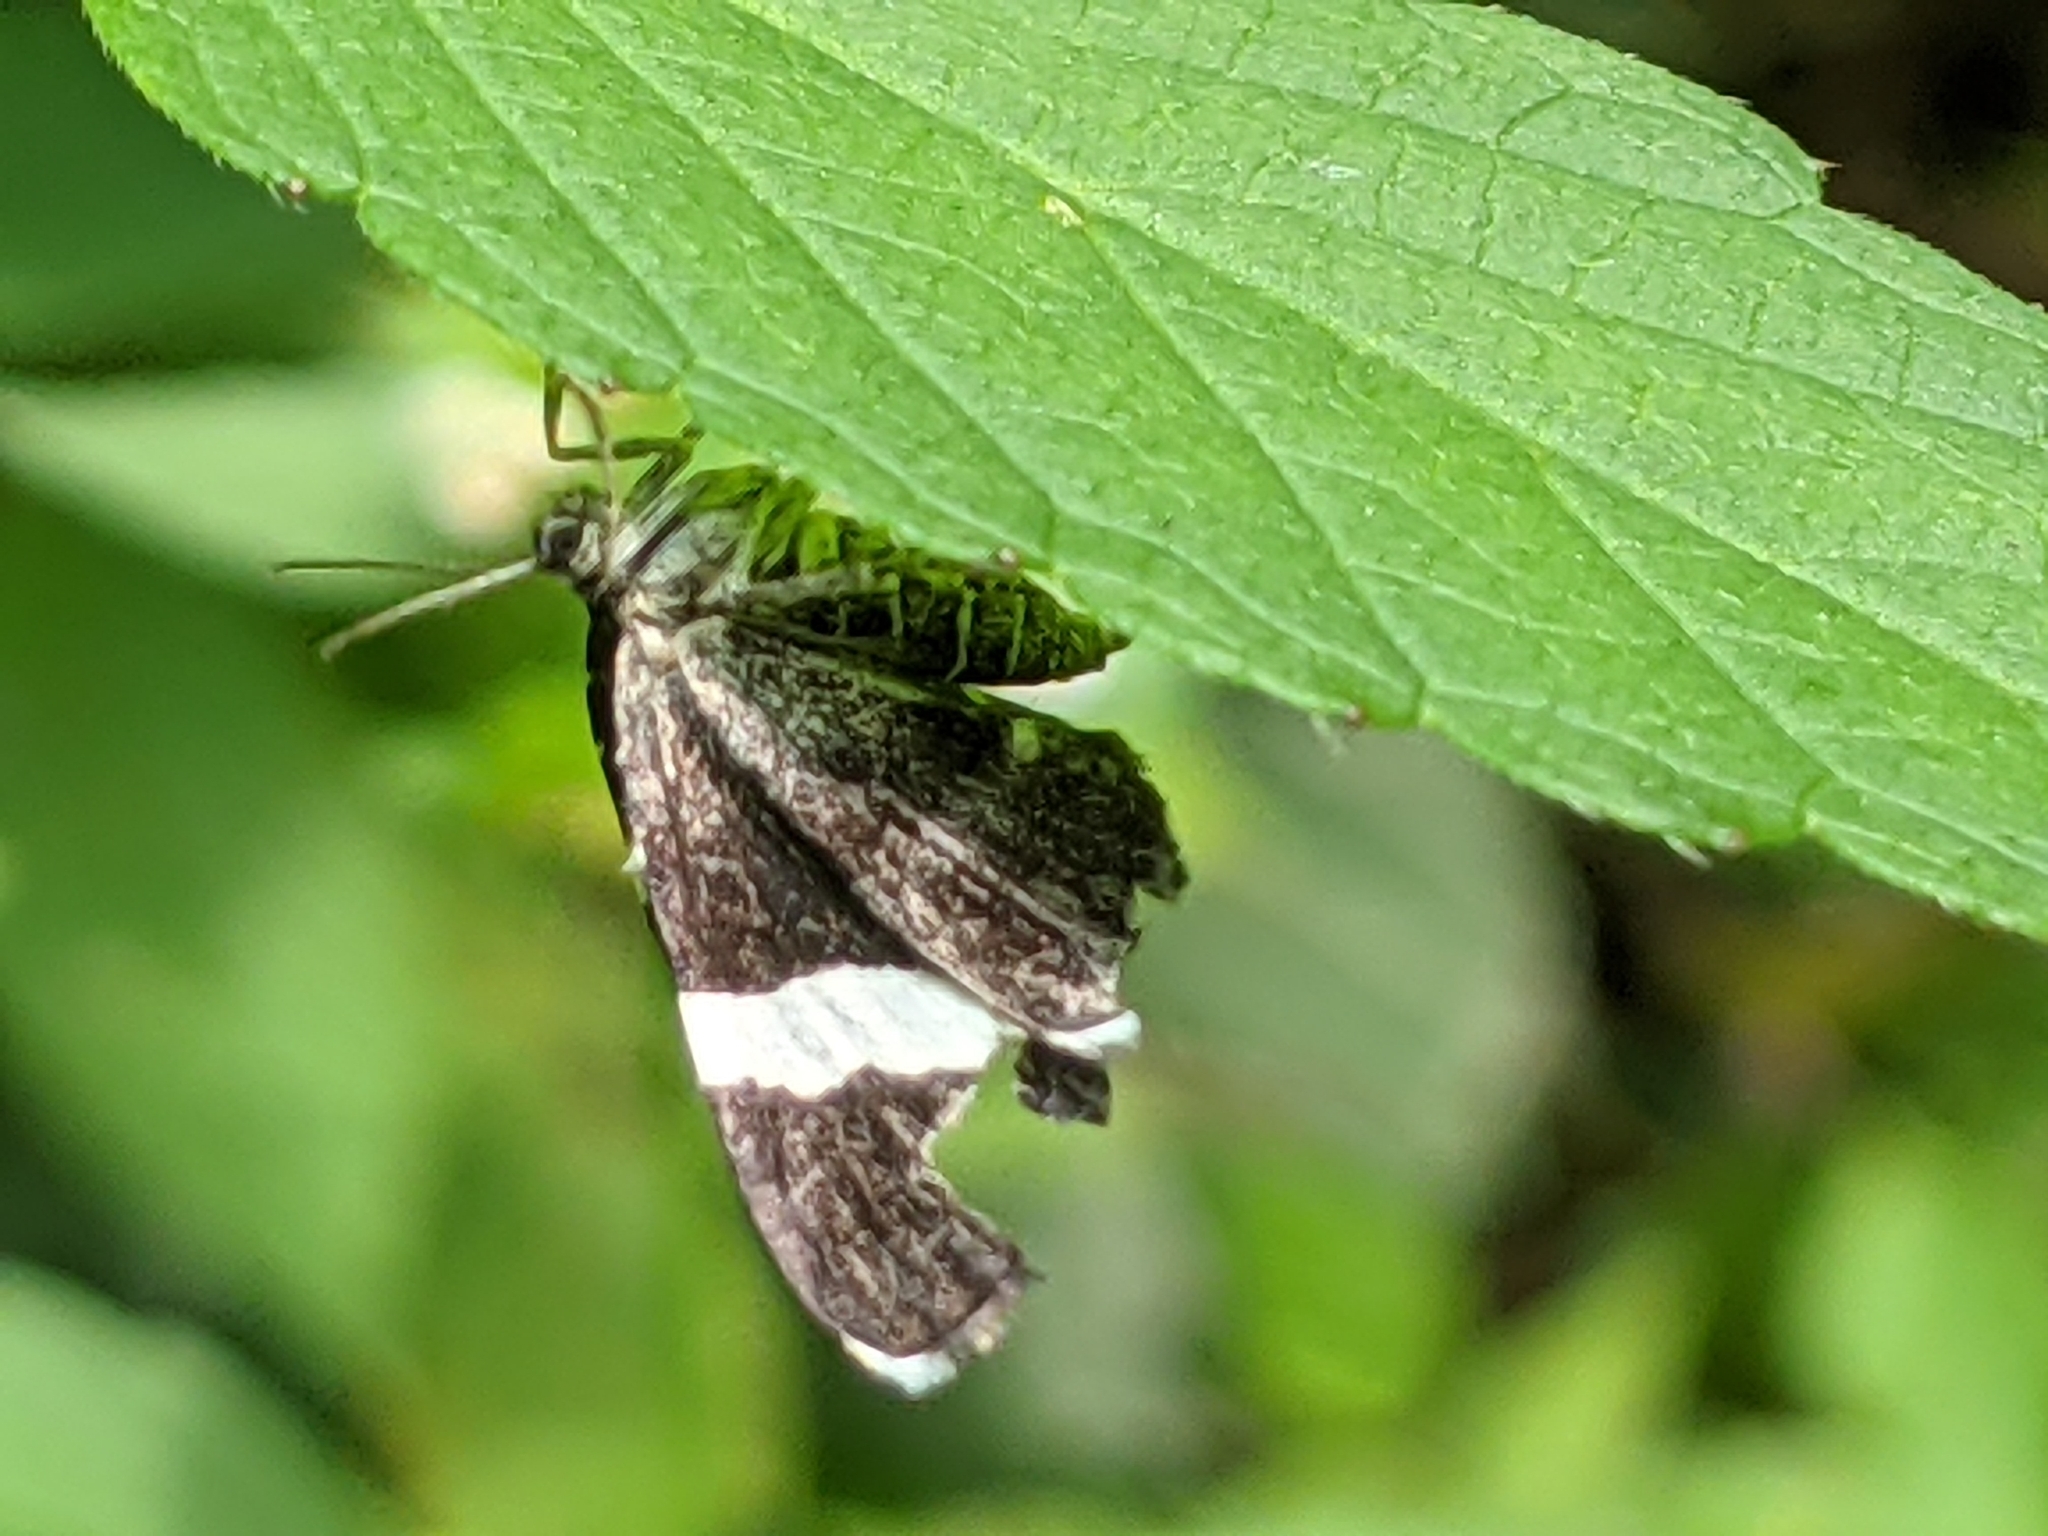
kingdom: Animalia
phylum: Arthropoda
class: Insecta
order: Lepidoptera
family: Geometridae
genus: Trichodezia
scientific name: Trichodezia albovittata
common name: White striped black
